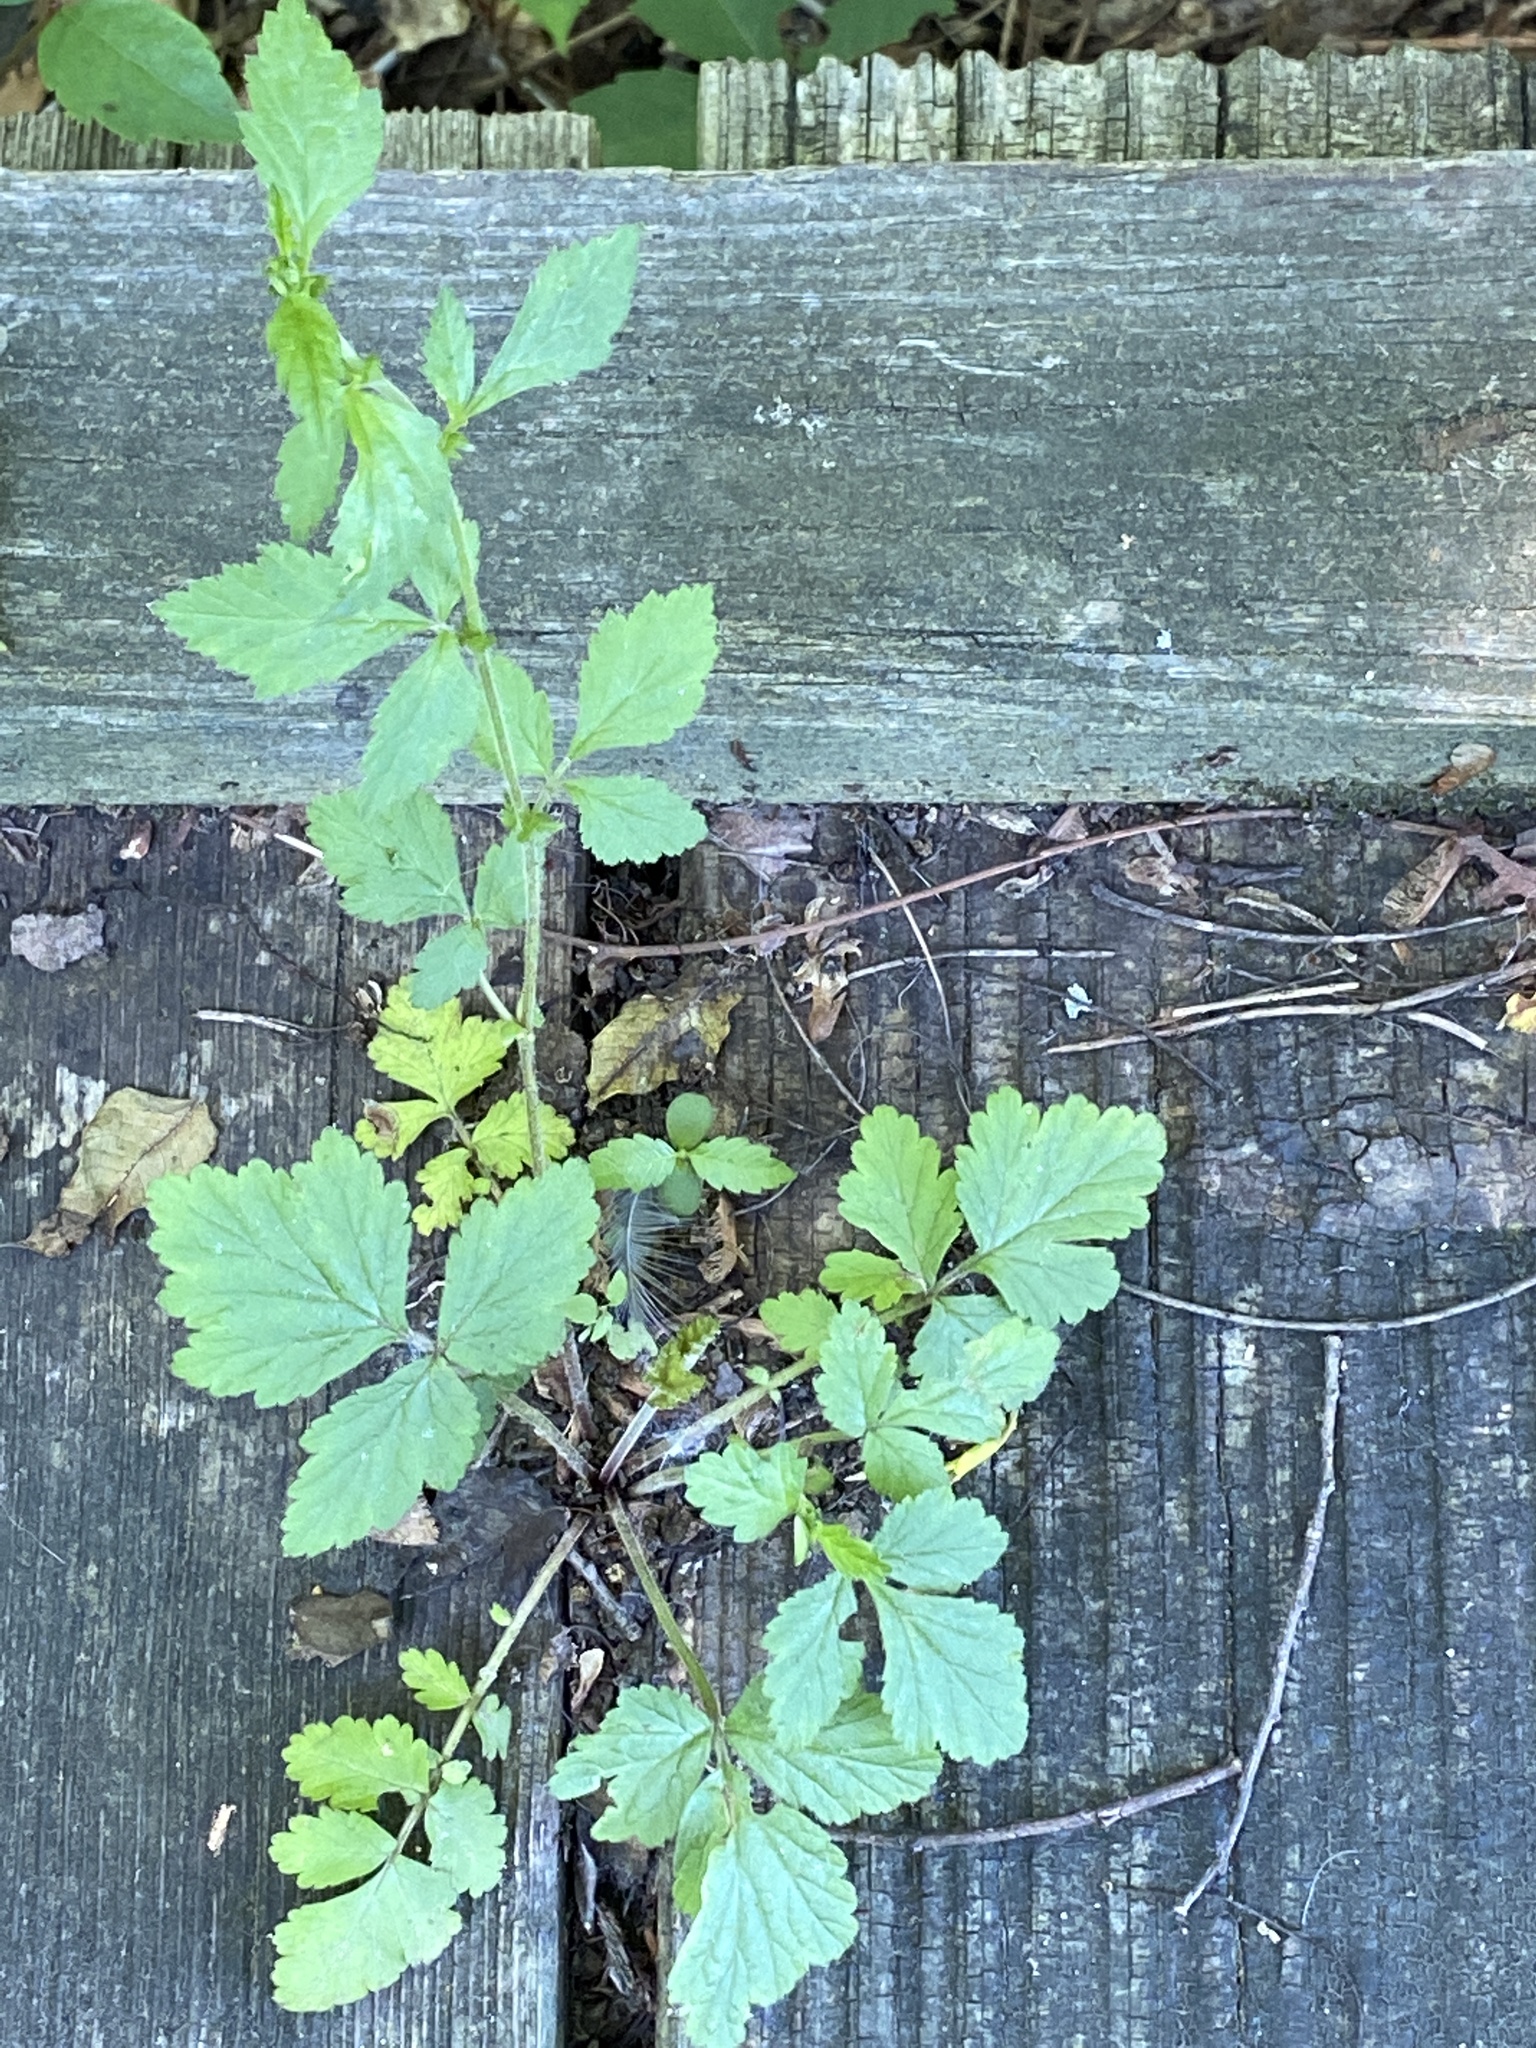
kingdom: Plantae
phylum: Tracheophyta
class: Magnoliopsida
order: Rosales
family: Rosaceae
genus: Geum
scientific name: Geum canadense
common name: White avens
